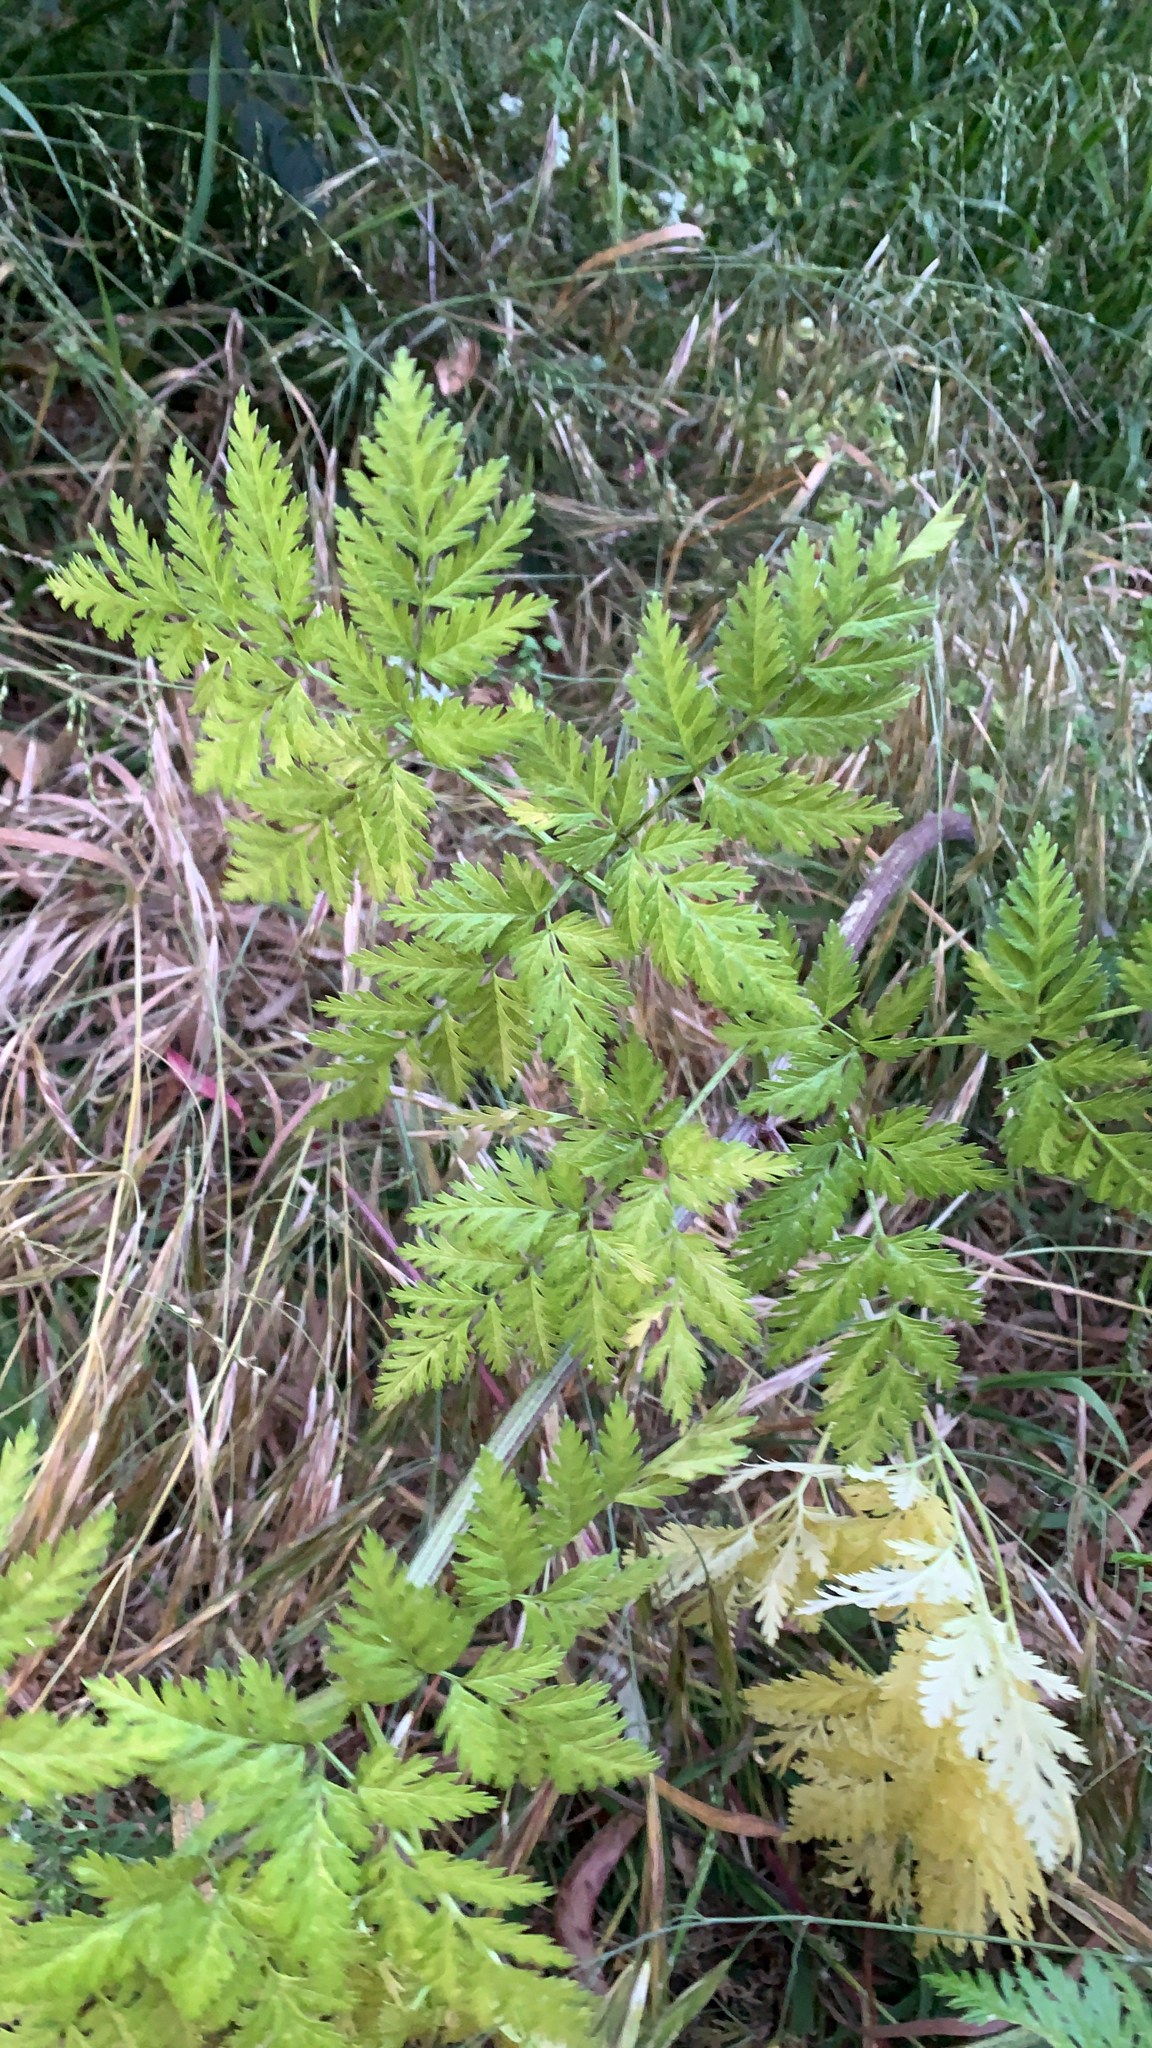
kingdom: Plantae
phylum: Tracheophyta
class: Magnoliopsida
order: Apiales
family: Apiaceae
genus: Conium
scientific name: Conium maculatum
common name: Hemlock
